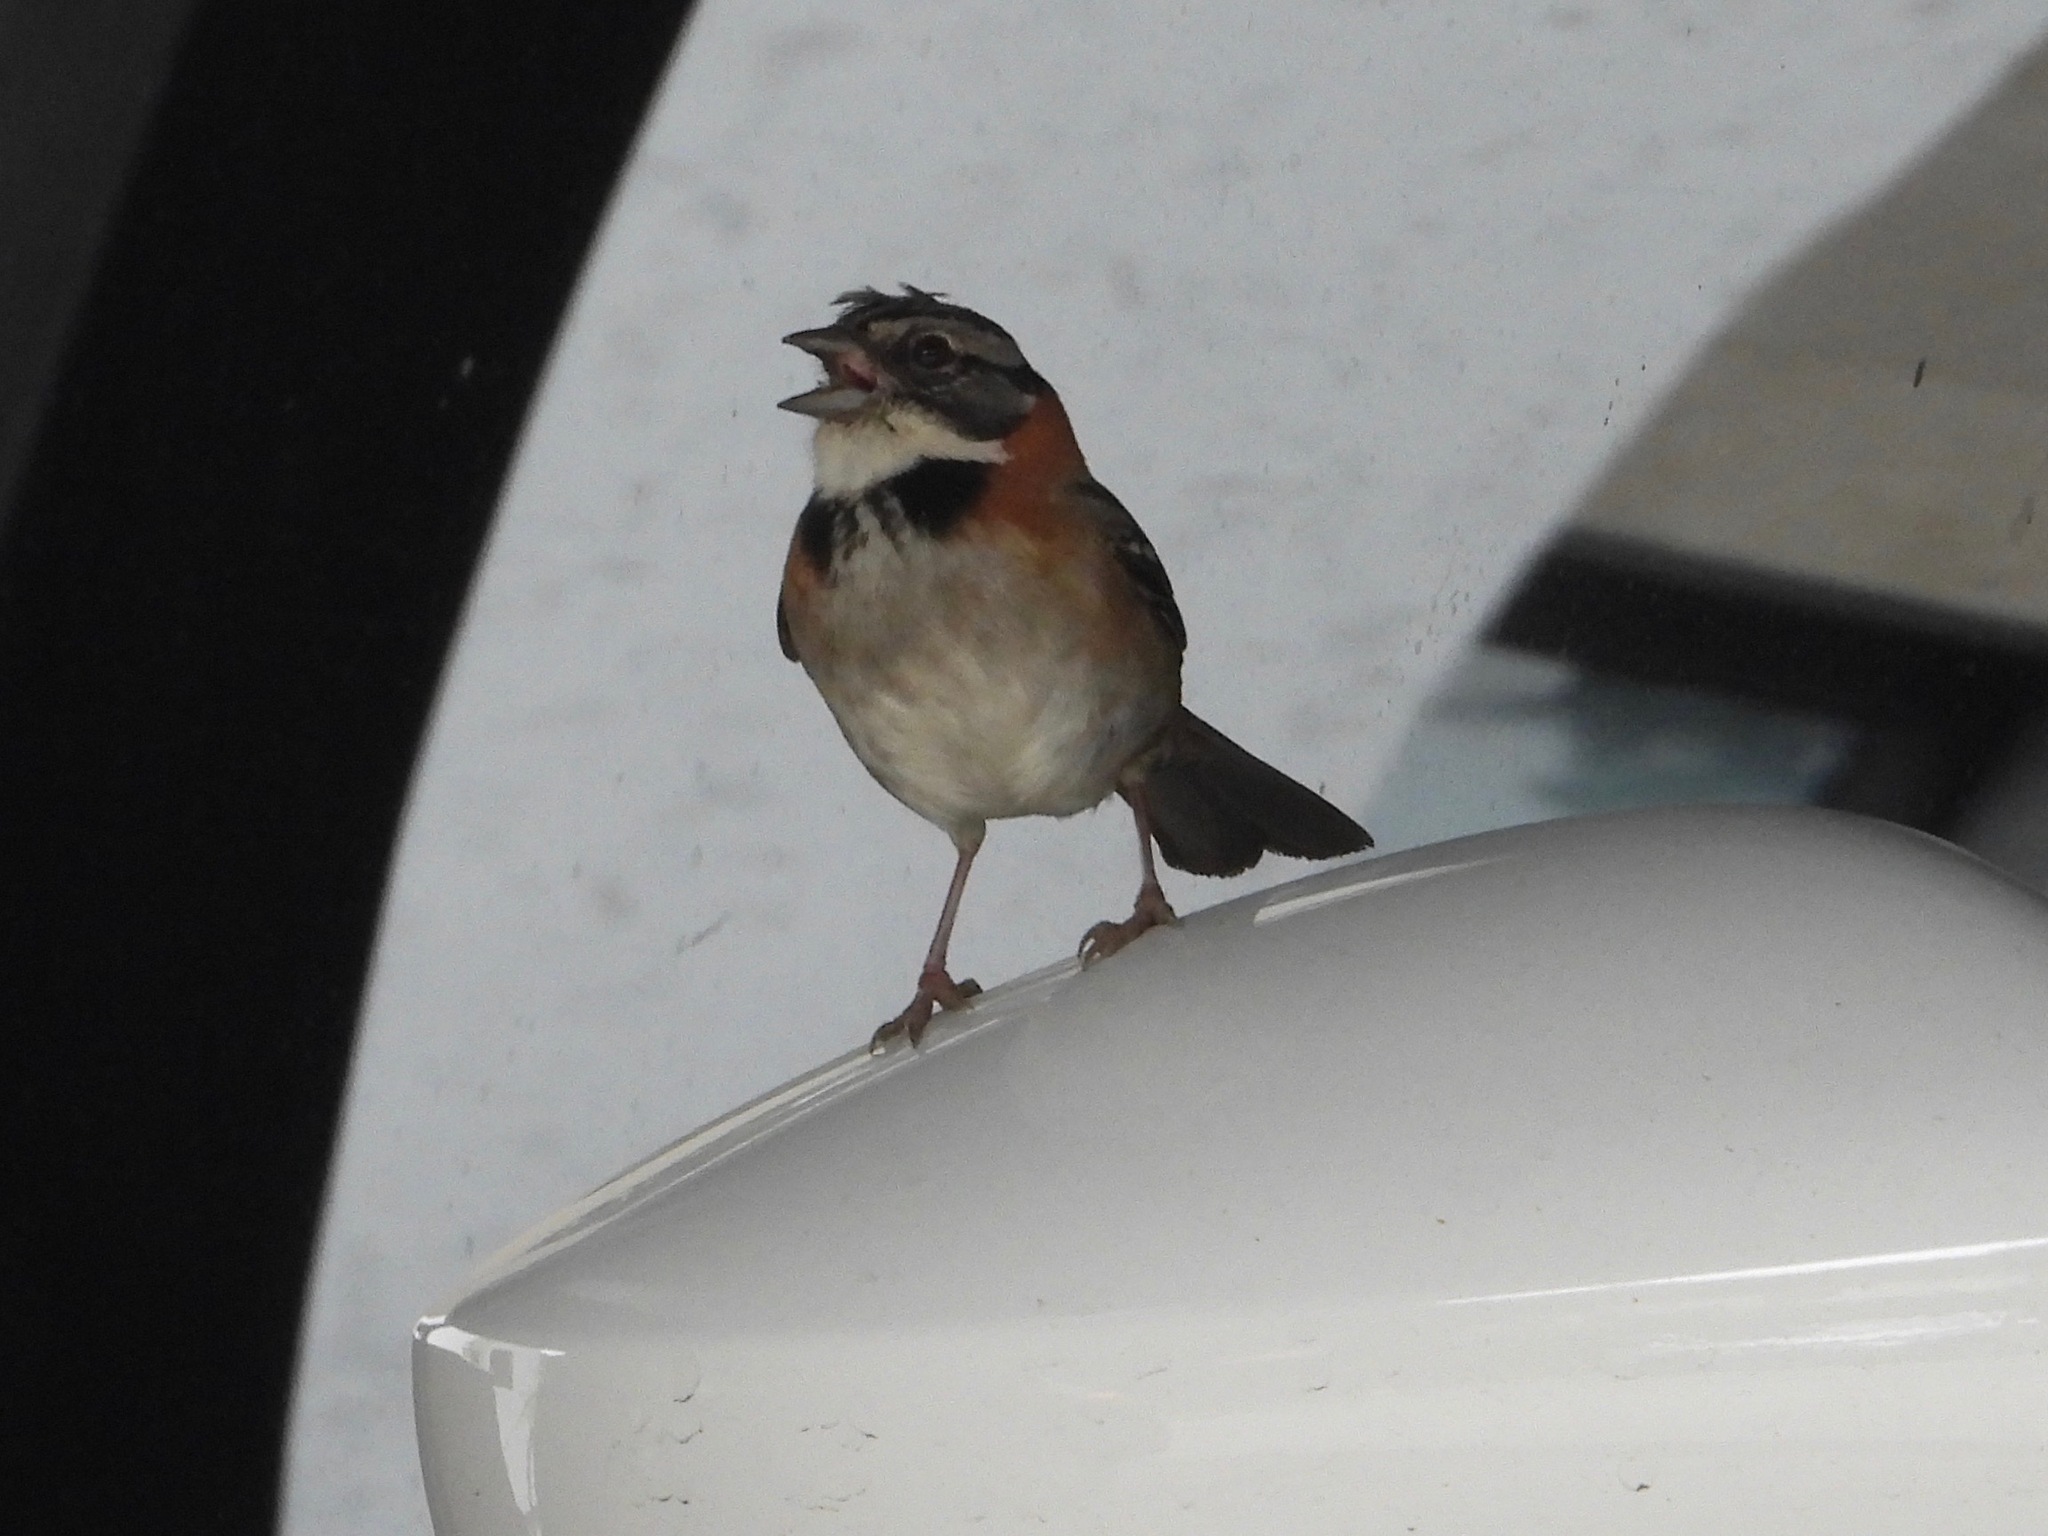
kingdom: Animalia
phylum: Chordata
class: Aves
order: Passeriformes
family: Passerellidae
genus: Zonotrichia
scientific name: Zonotrichia capensis
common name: Rufous-collared sparrow
